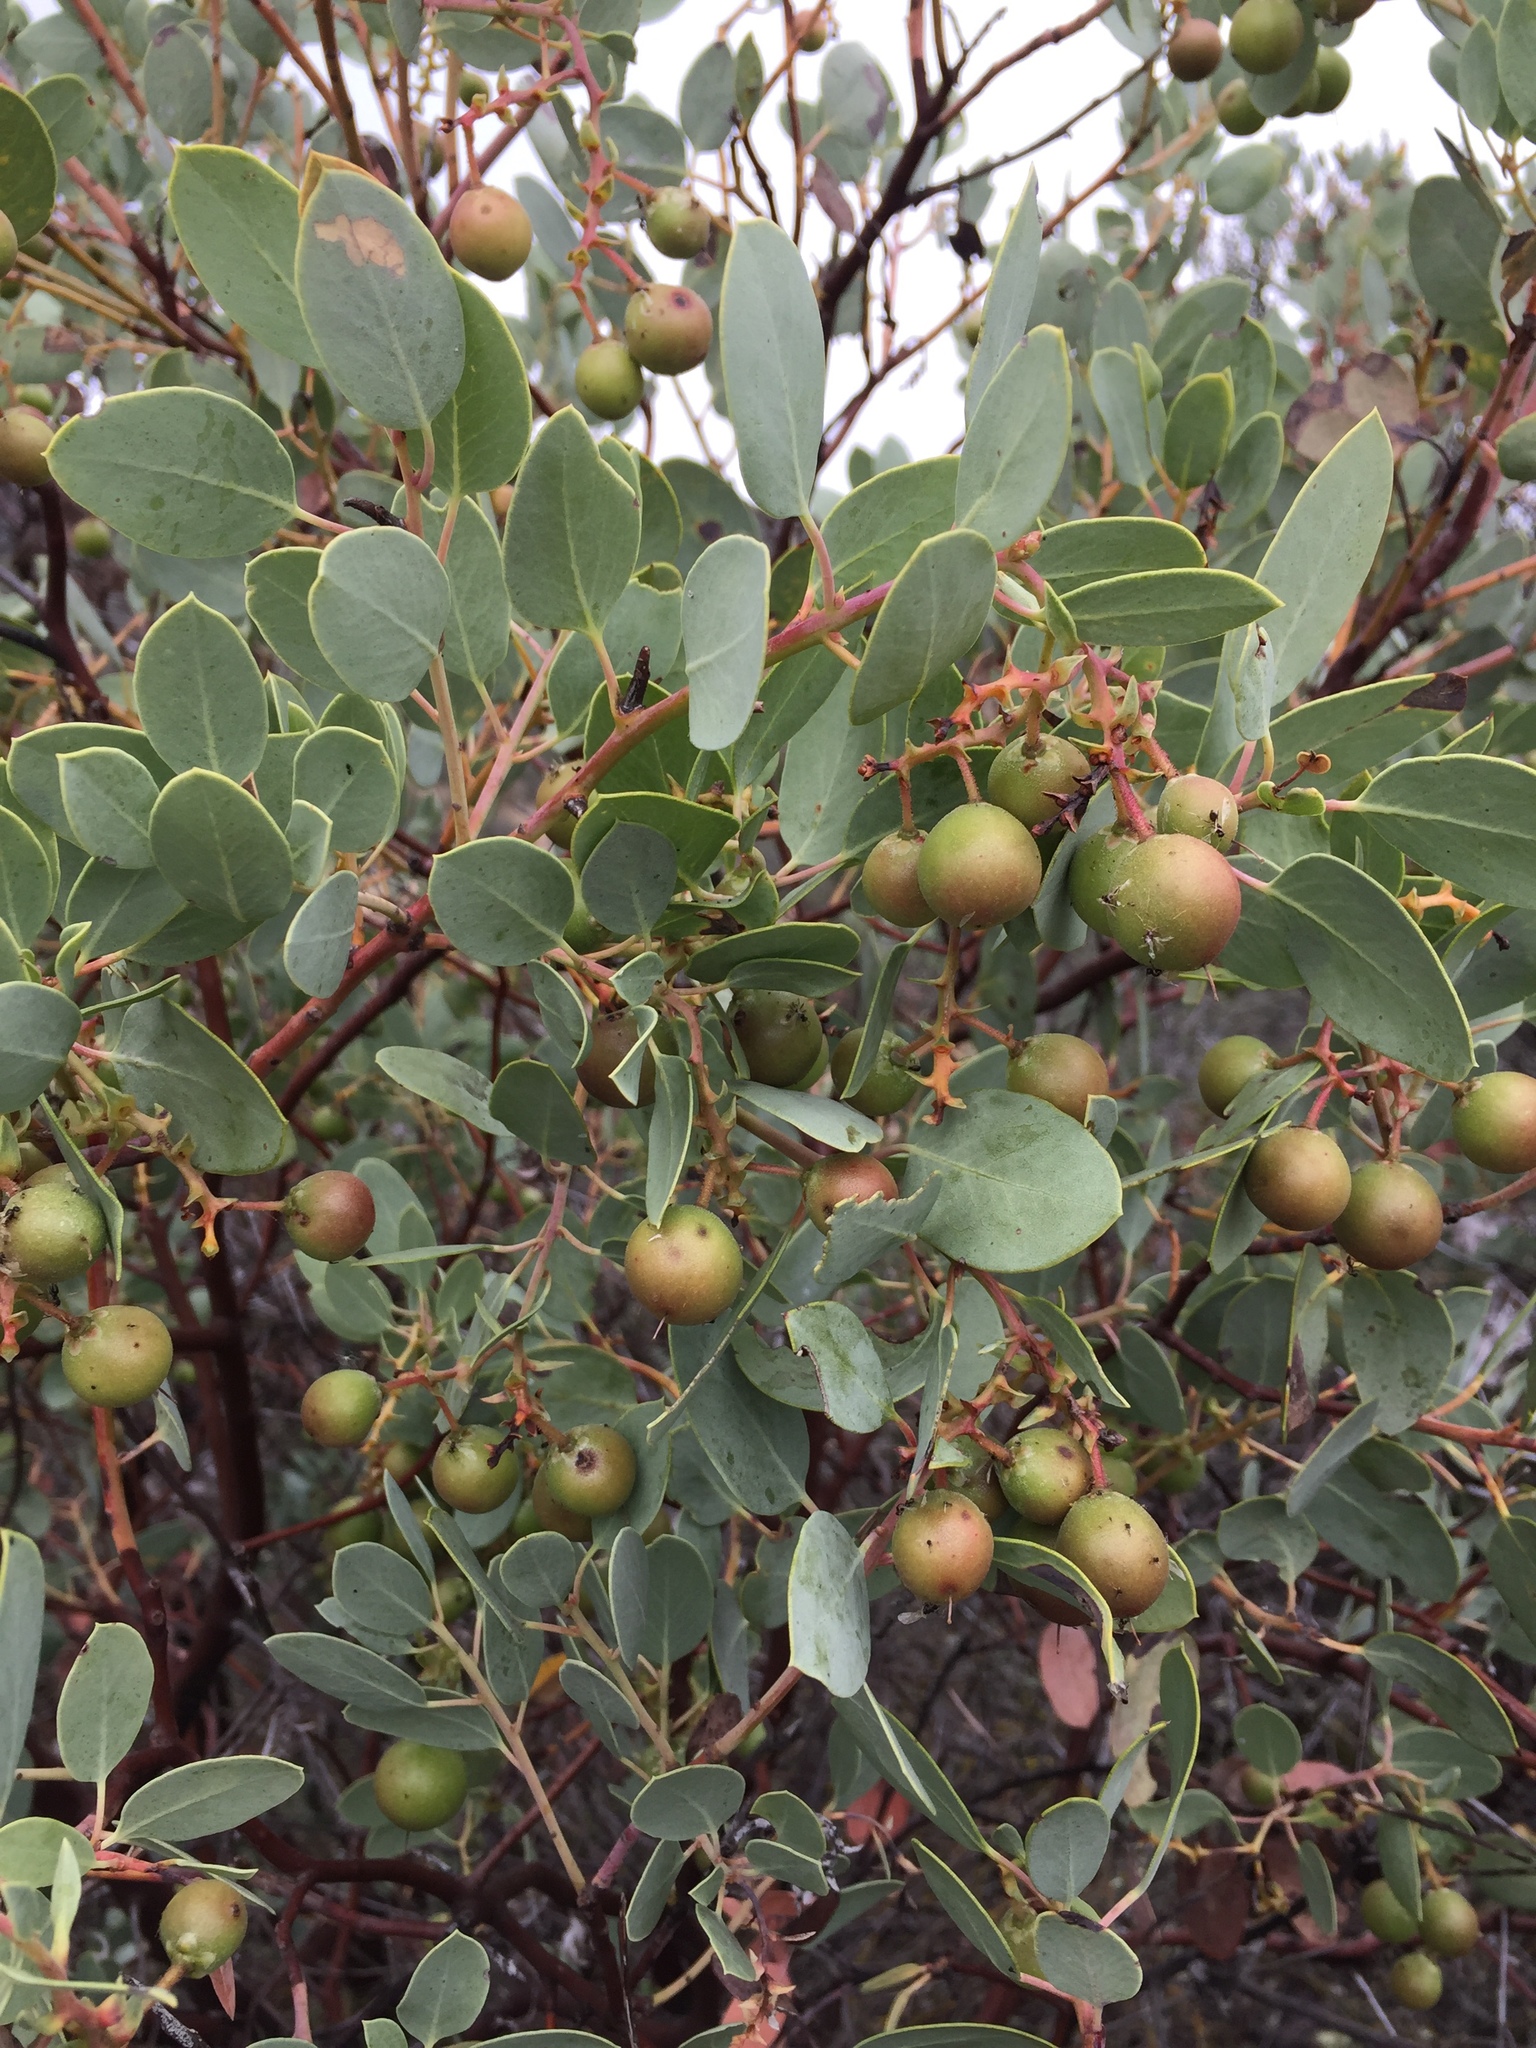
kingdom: Plantae
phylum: Tracheophyta
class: Magnoliopsida
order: Ericales
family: Ericaceae
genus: Arctostaphylos
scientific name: Arctostaphylos glauca
